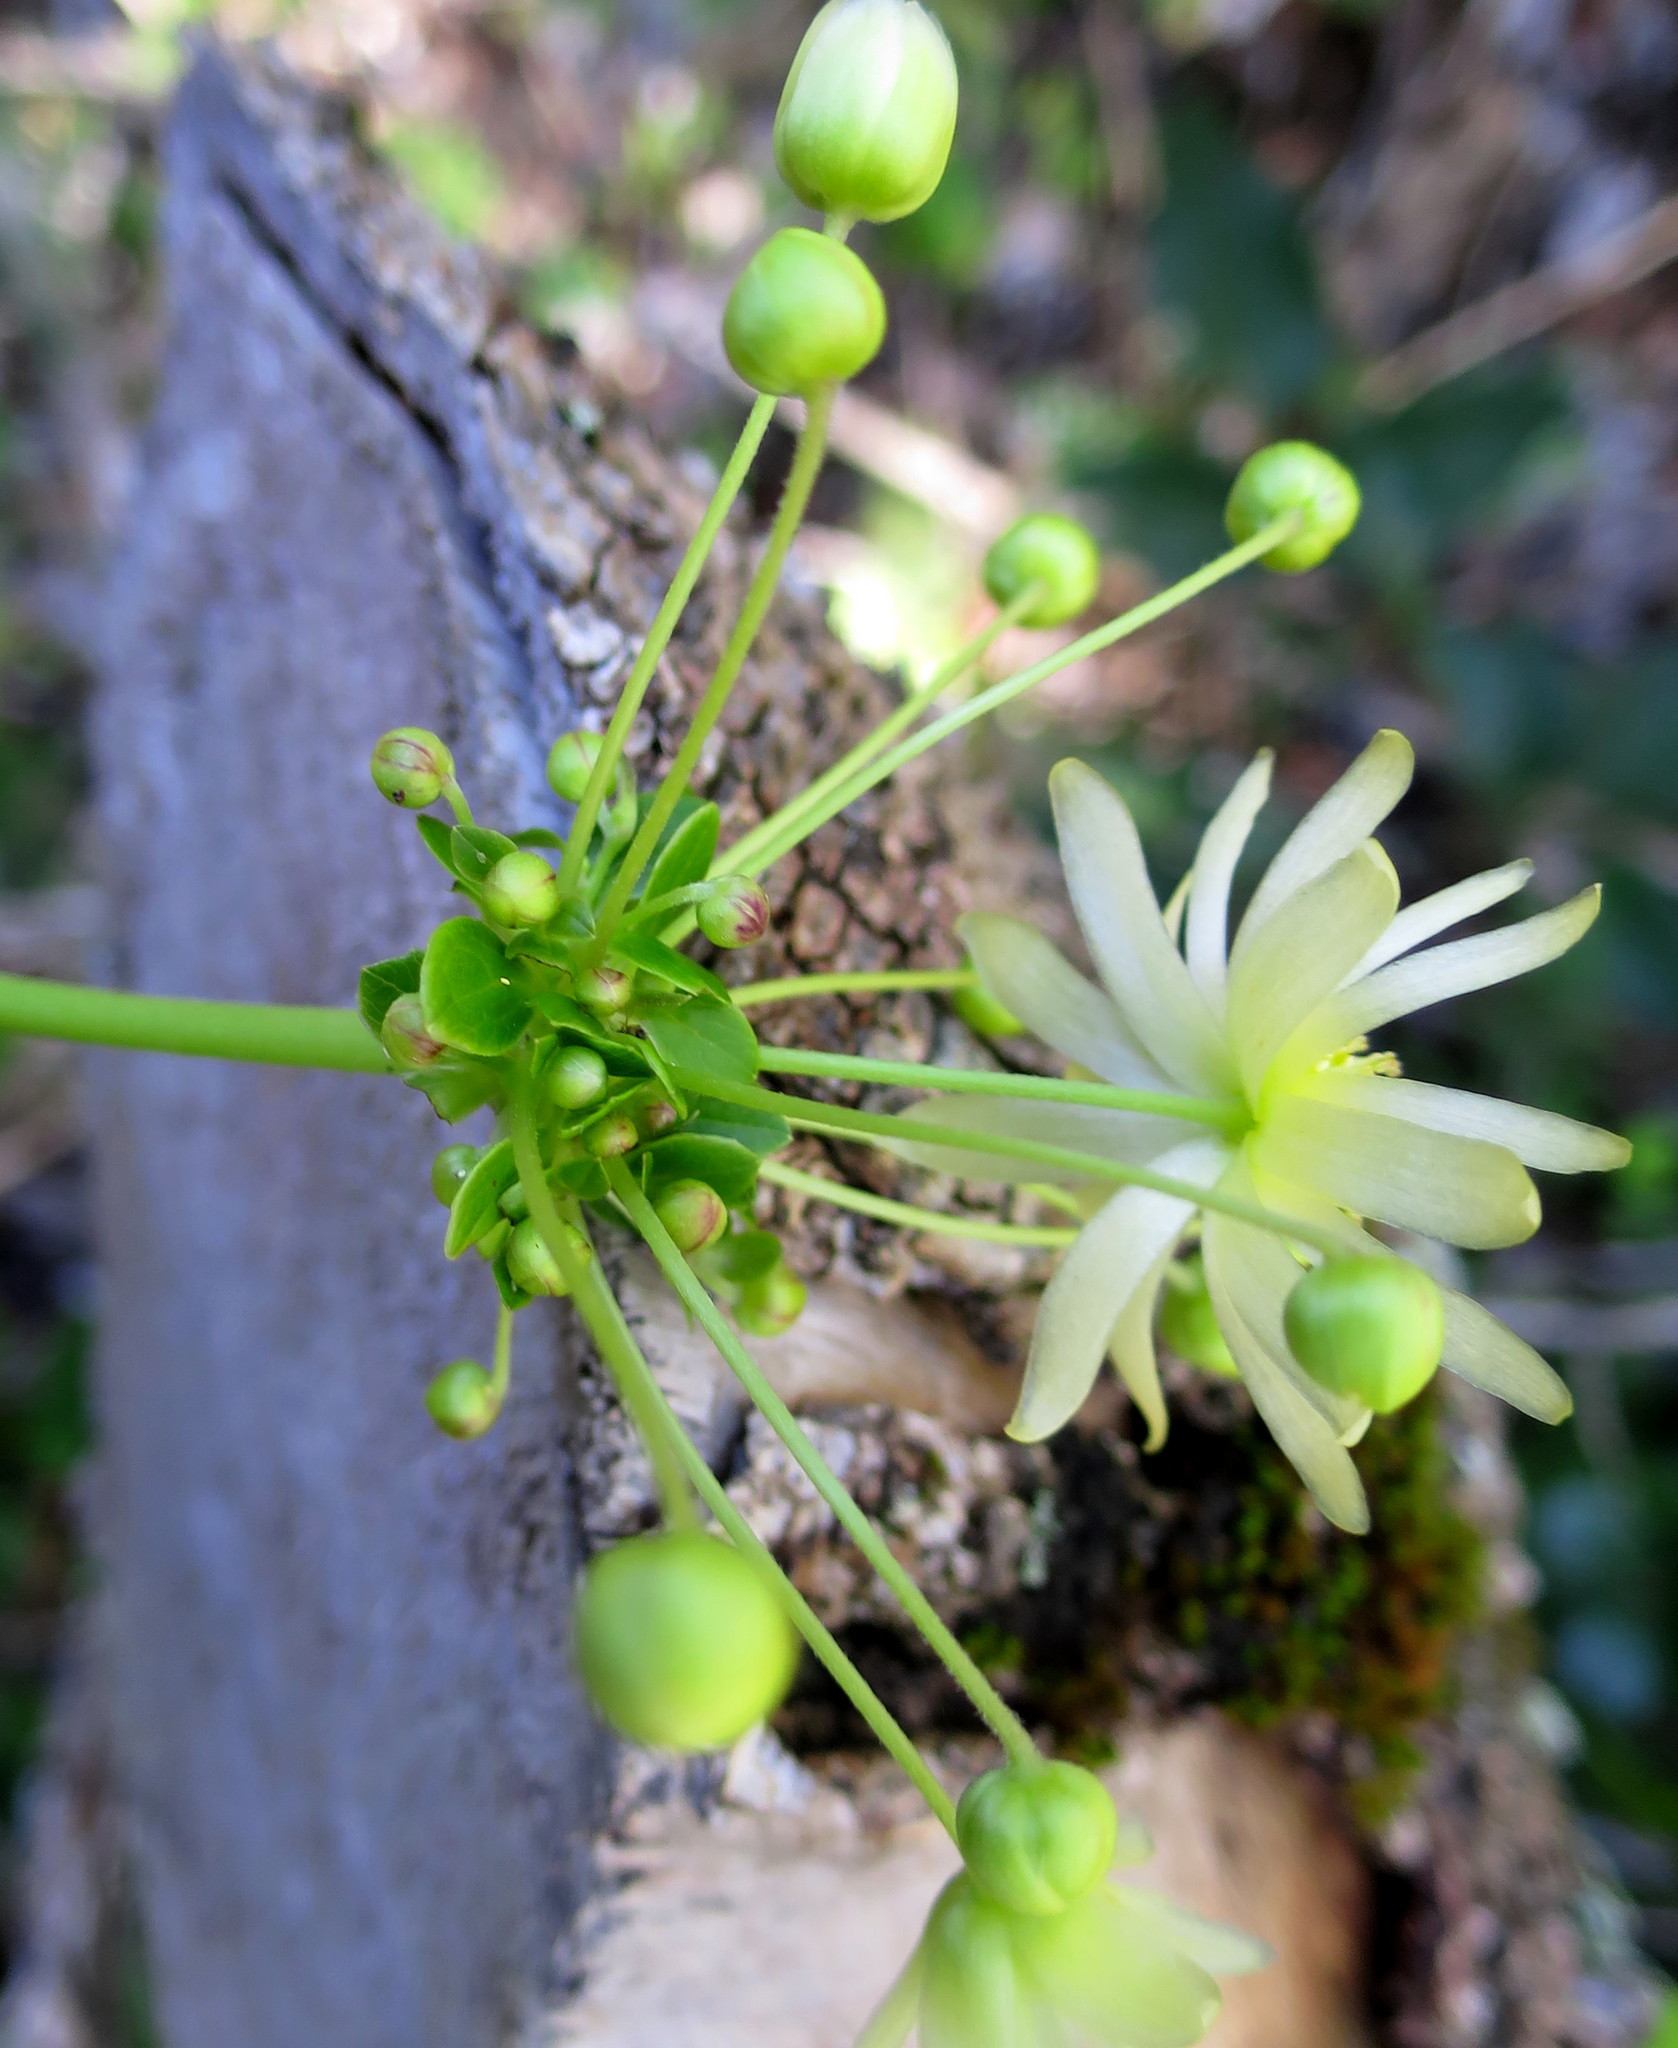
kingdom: Plantae
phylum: Tracheophyta
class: Magnoliopsida
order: Ranunculales
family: Ranunculaceae
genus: Knowltonia
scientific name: Knowltonia vesicatoria
